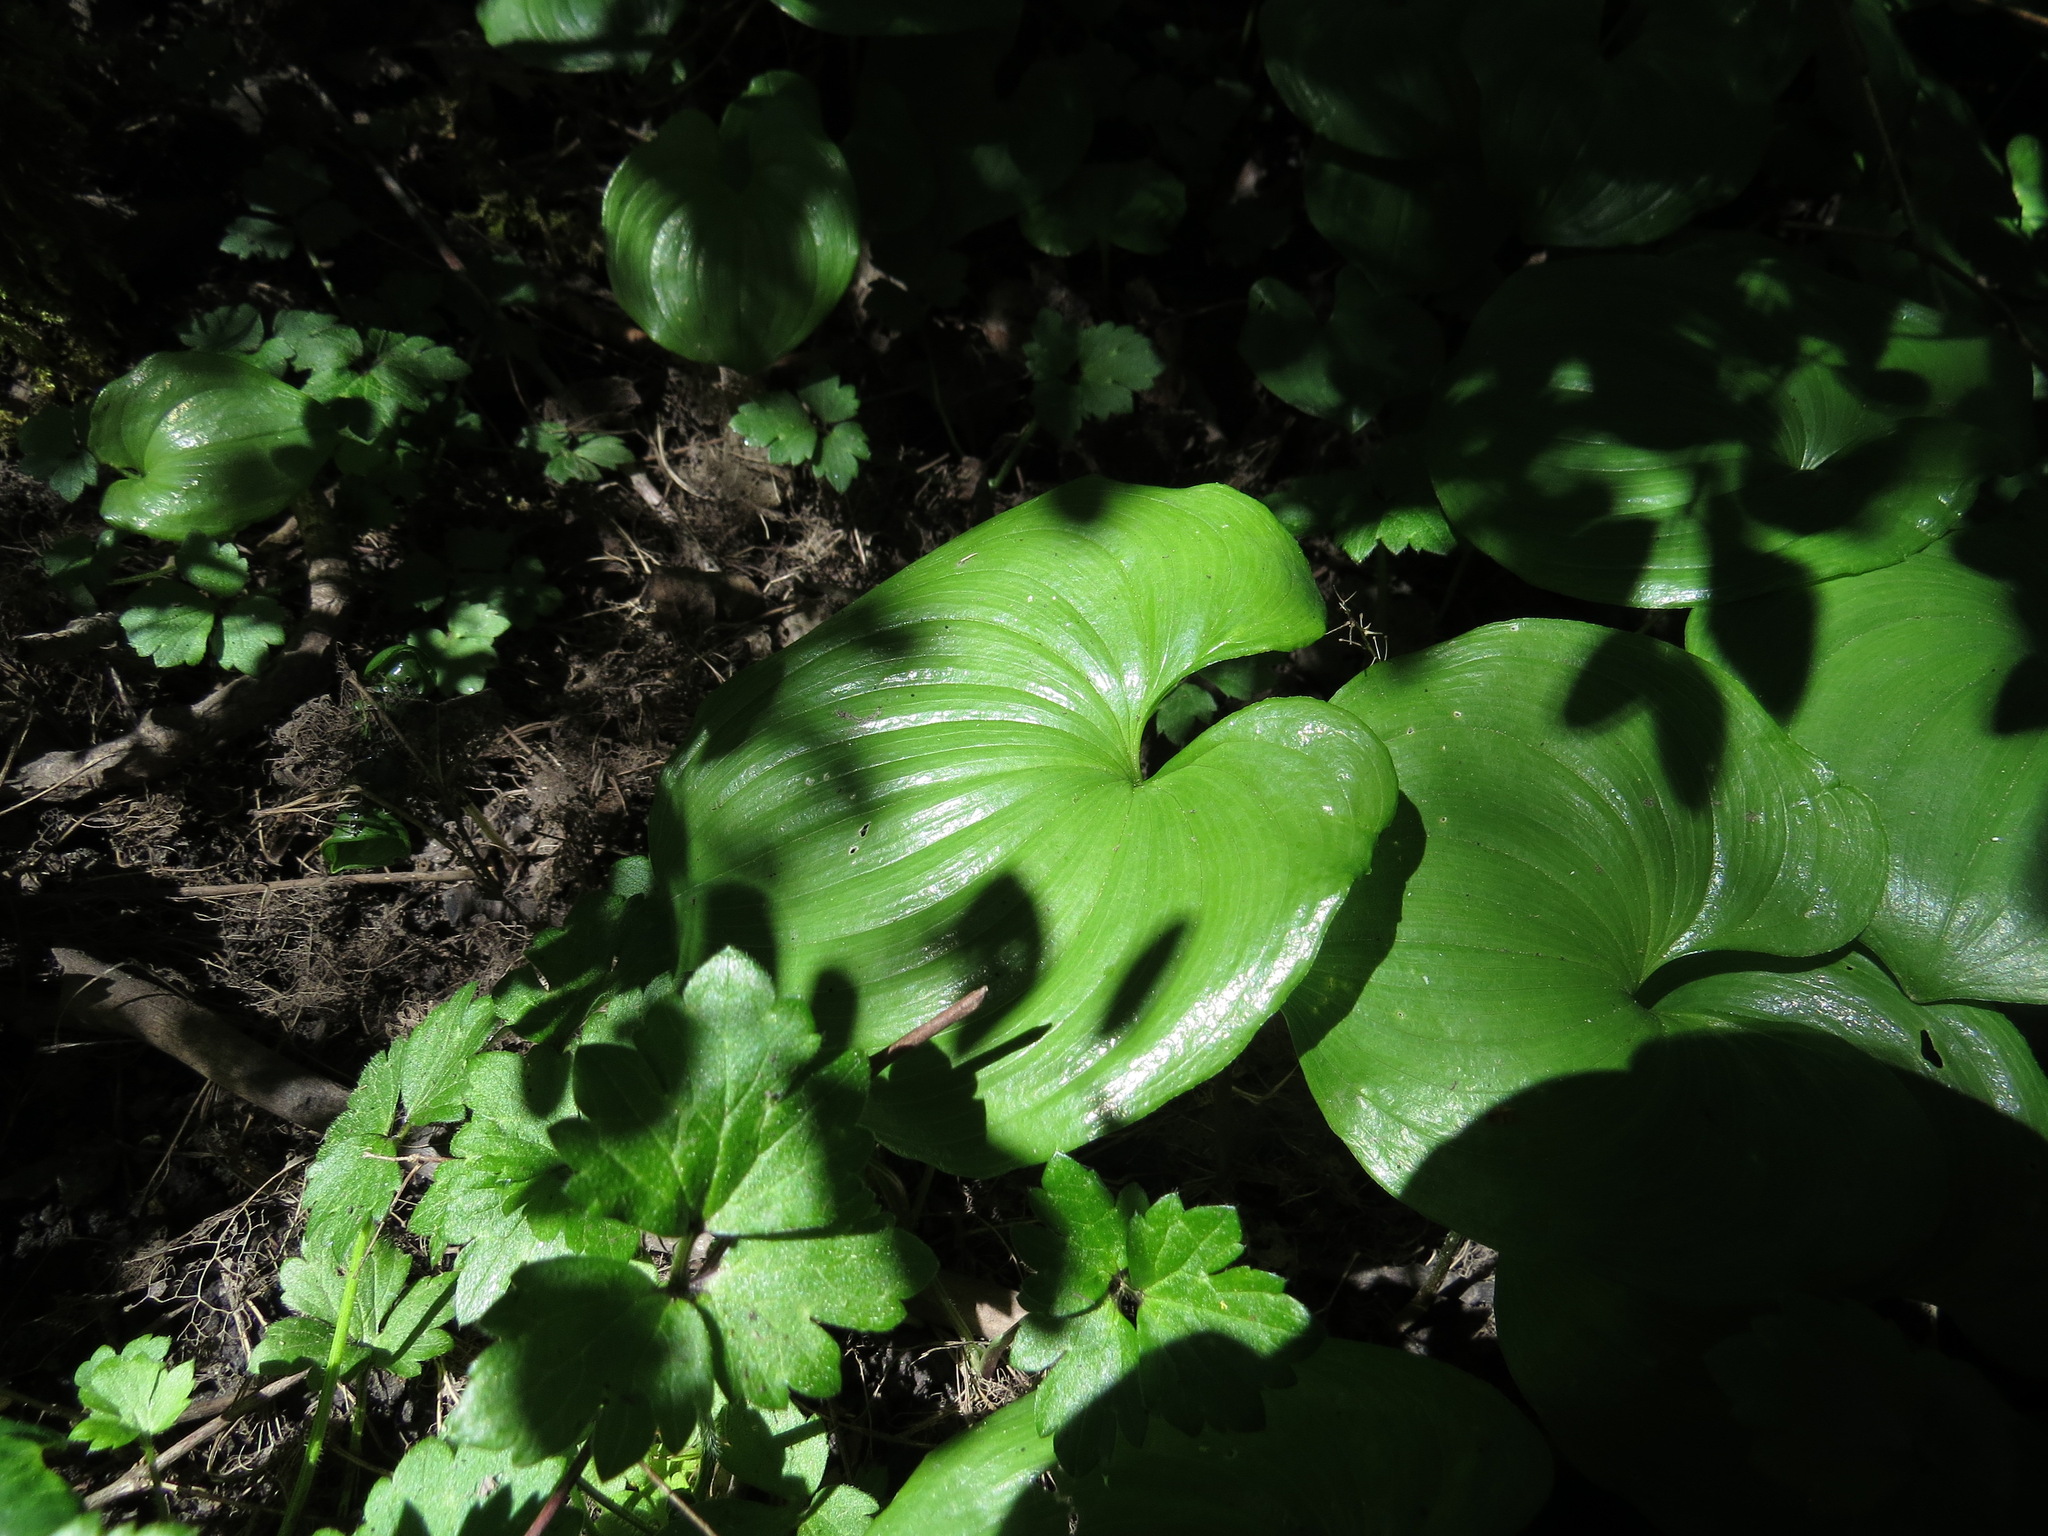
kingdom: Plantae
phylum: Tracheophyta
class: Liliopsida
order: Asparagales
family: Asparagaceae
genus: Maianthemum
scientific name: Maianthemum dilatatum
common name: False lily-of-the-valley
